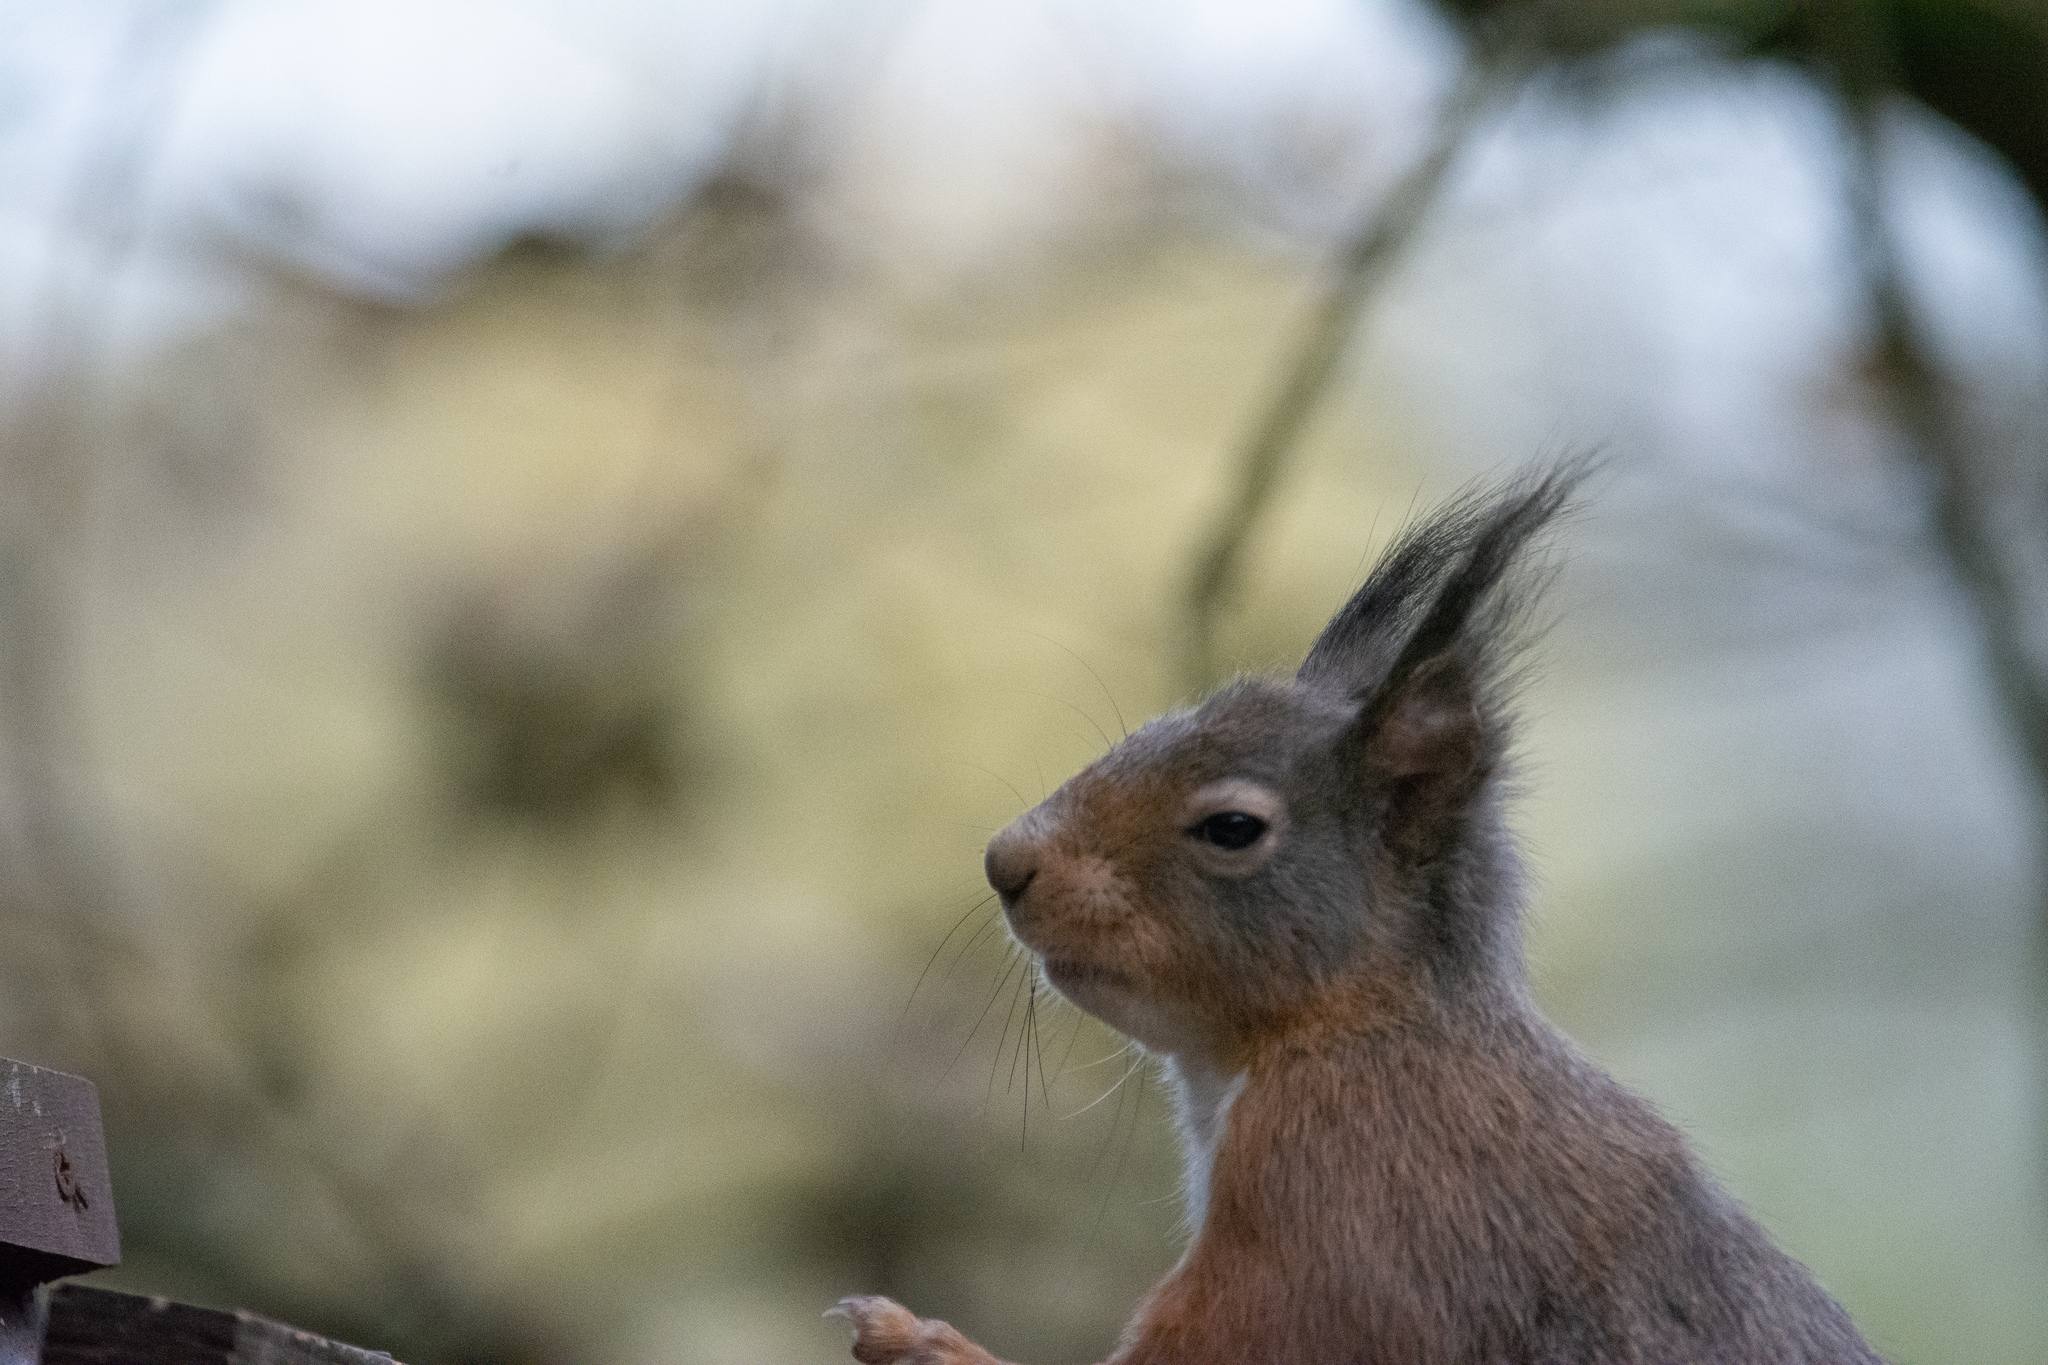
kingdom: Animalia
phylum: Chordata
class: Mammalia
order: Rodentia
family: Sciuridae
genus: Sciurus
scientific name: Sciurus vulgaris
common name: Eurasian red squirrel
